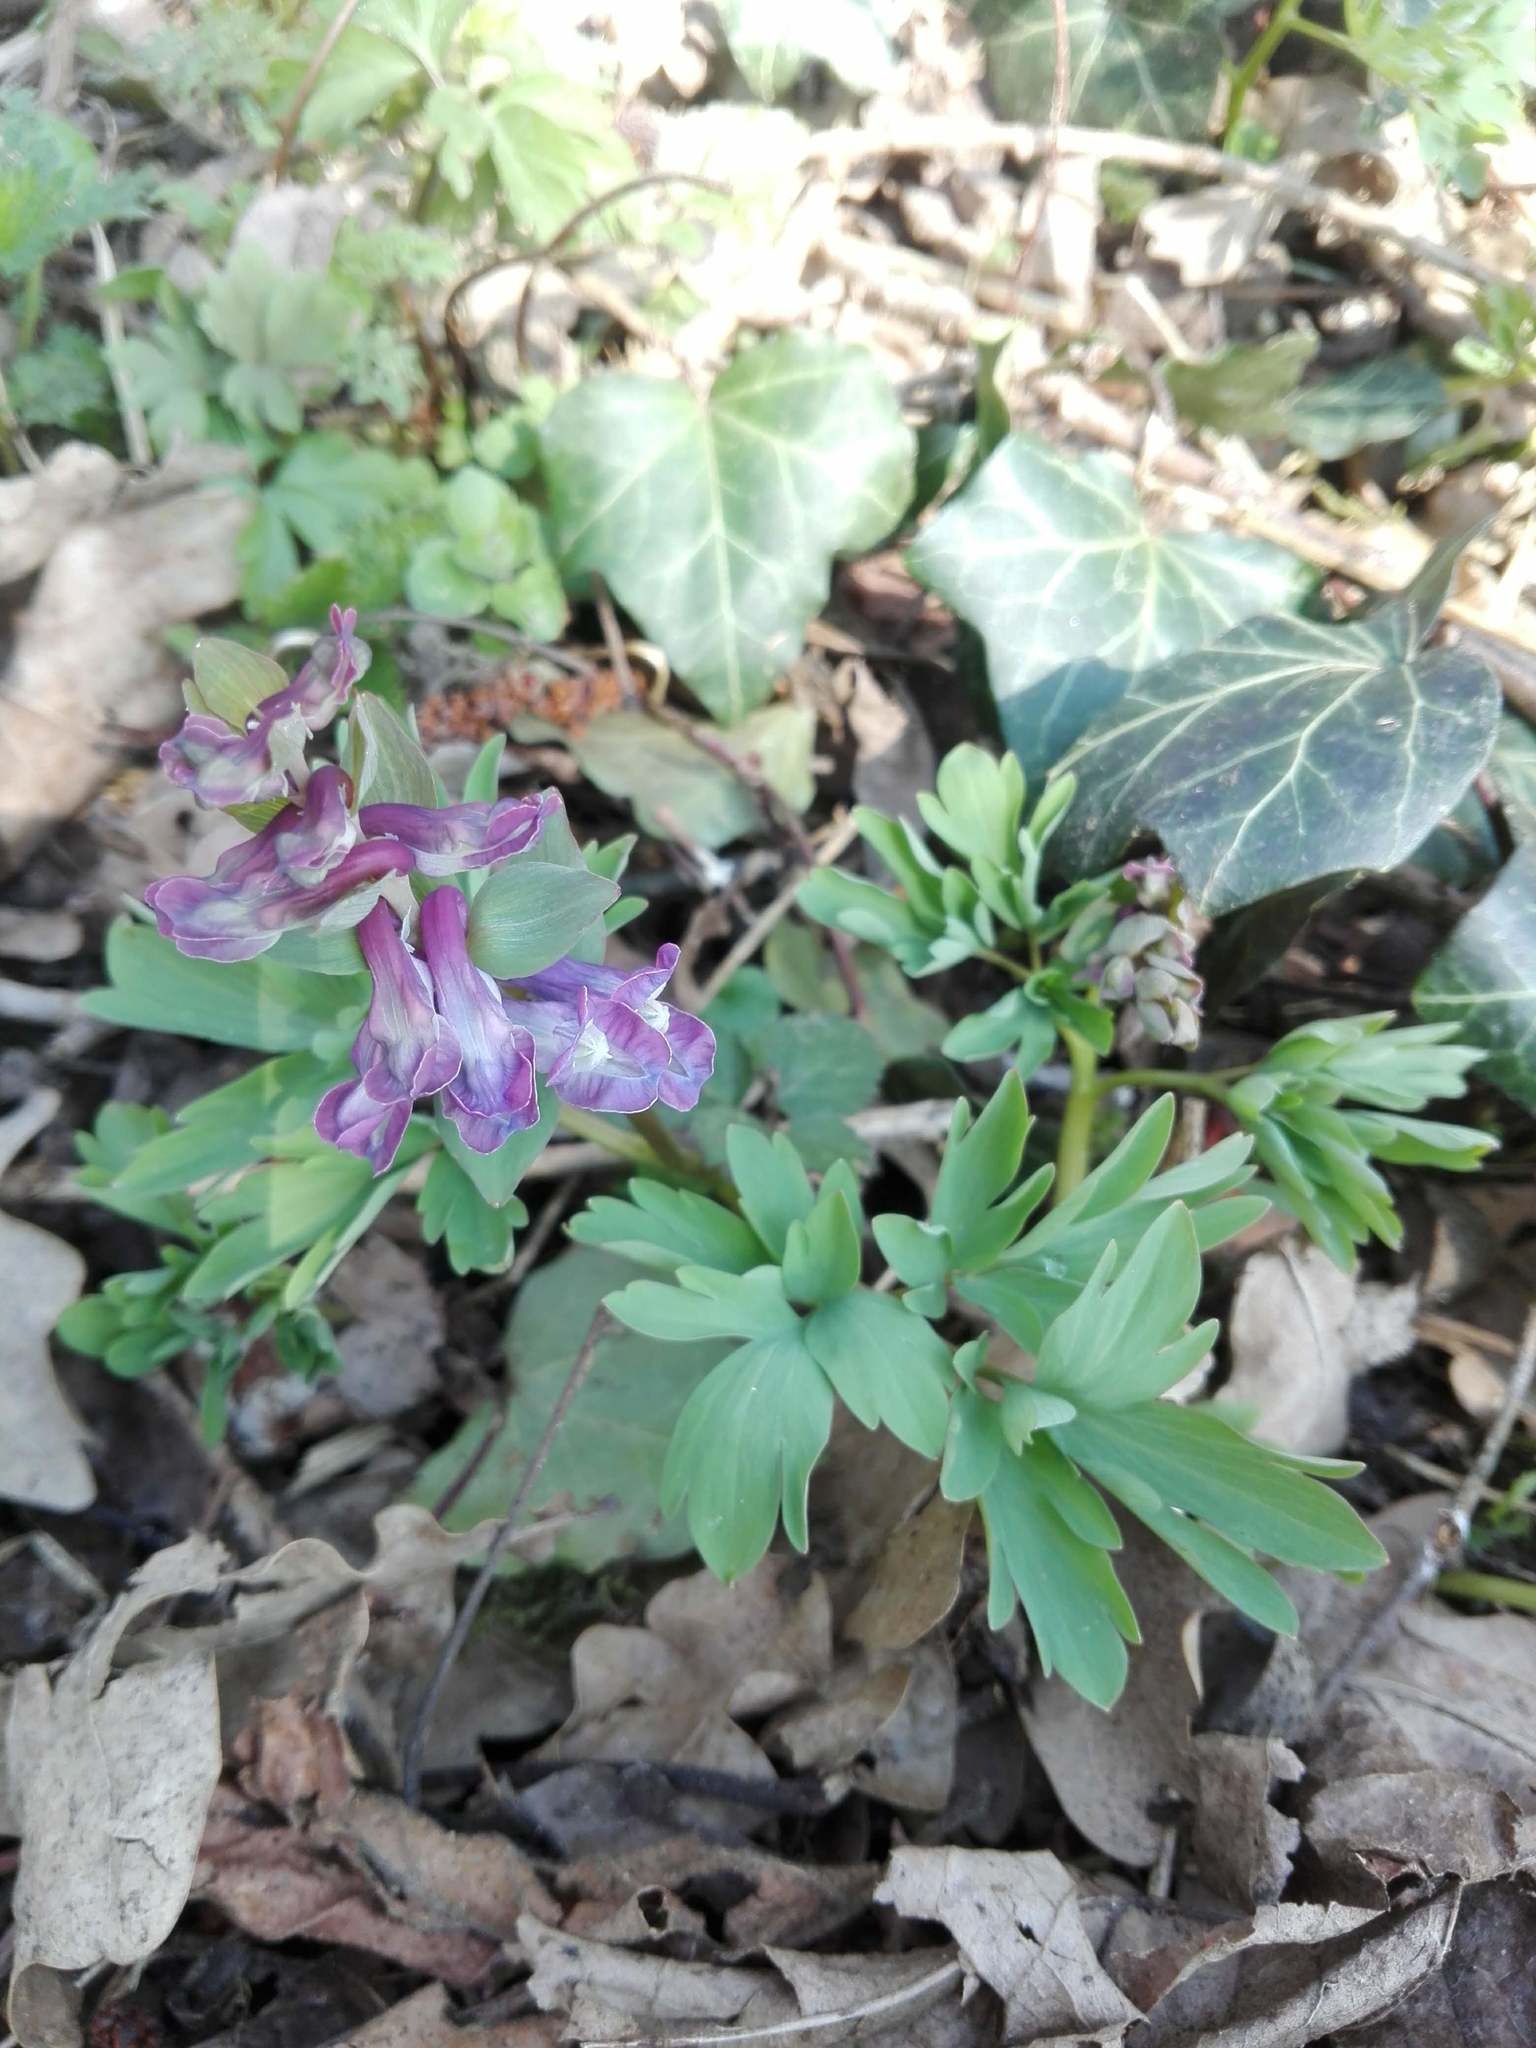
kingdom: Plantae
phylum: Tracheophyta
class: Magnoliopsida
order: Ranunculales
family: Papaveraceae
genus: Corydalis
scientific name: Corydalis cava
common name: Hollowroot
